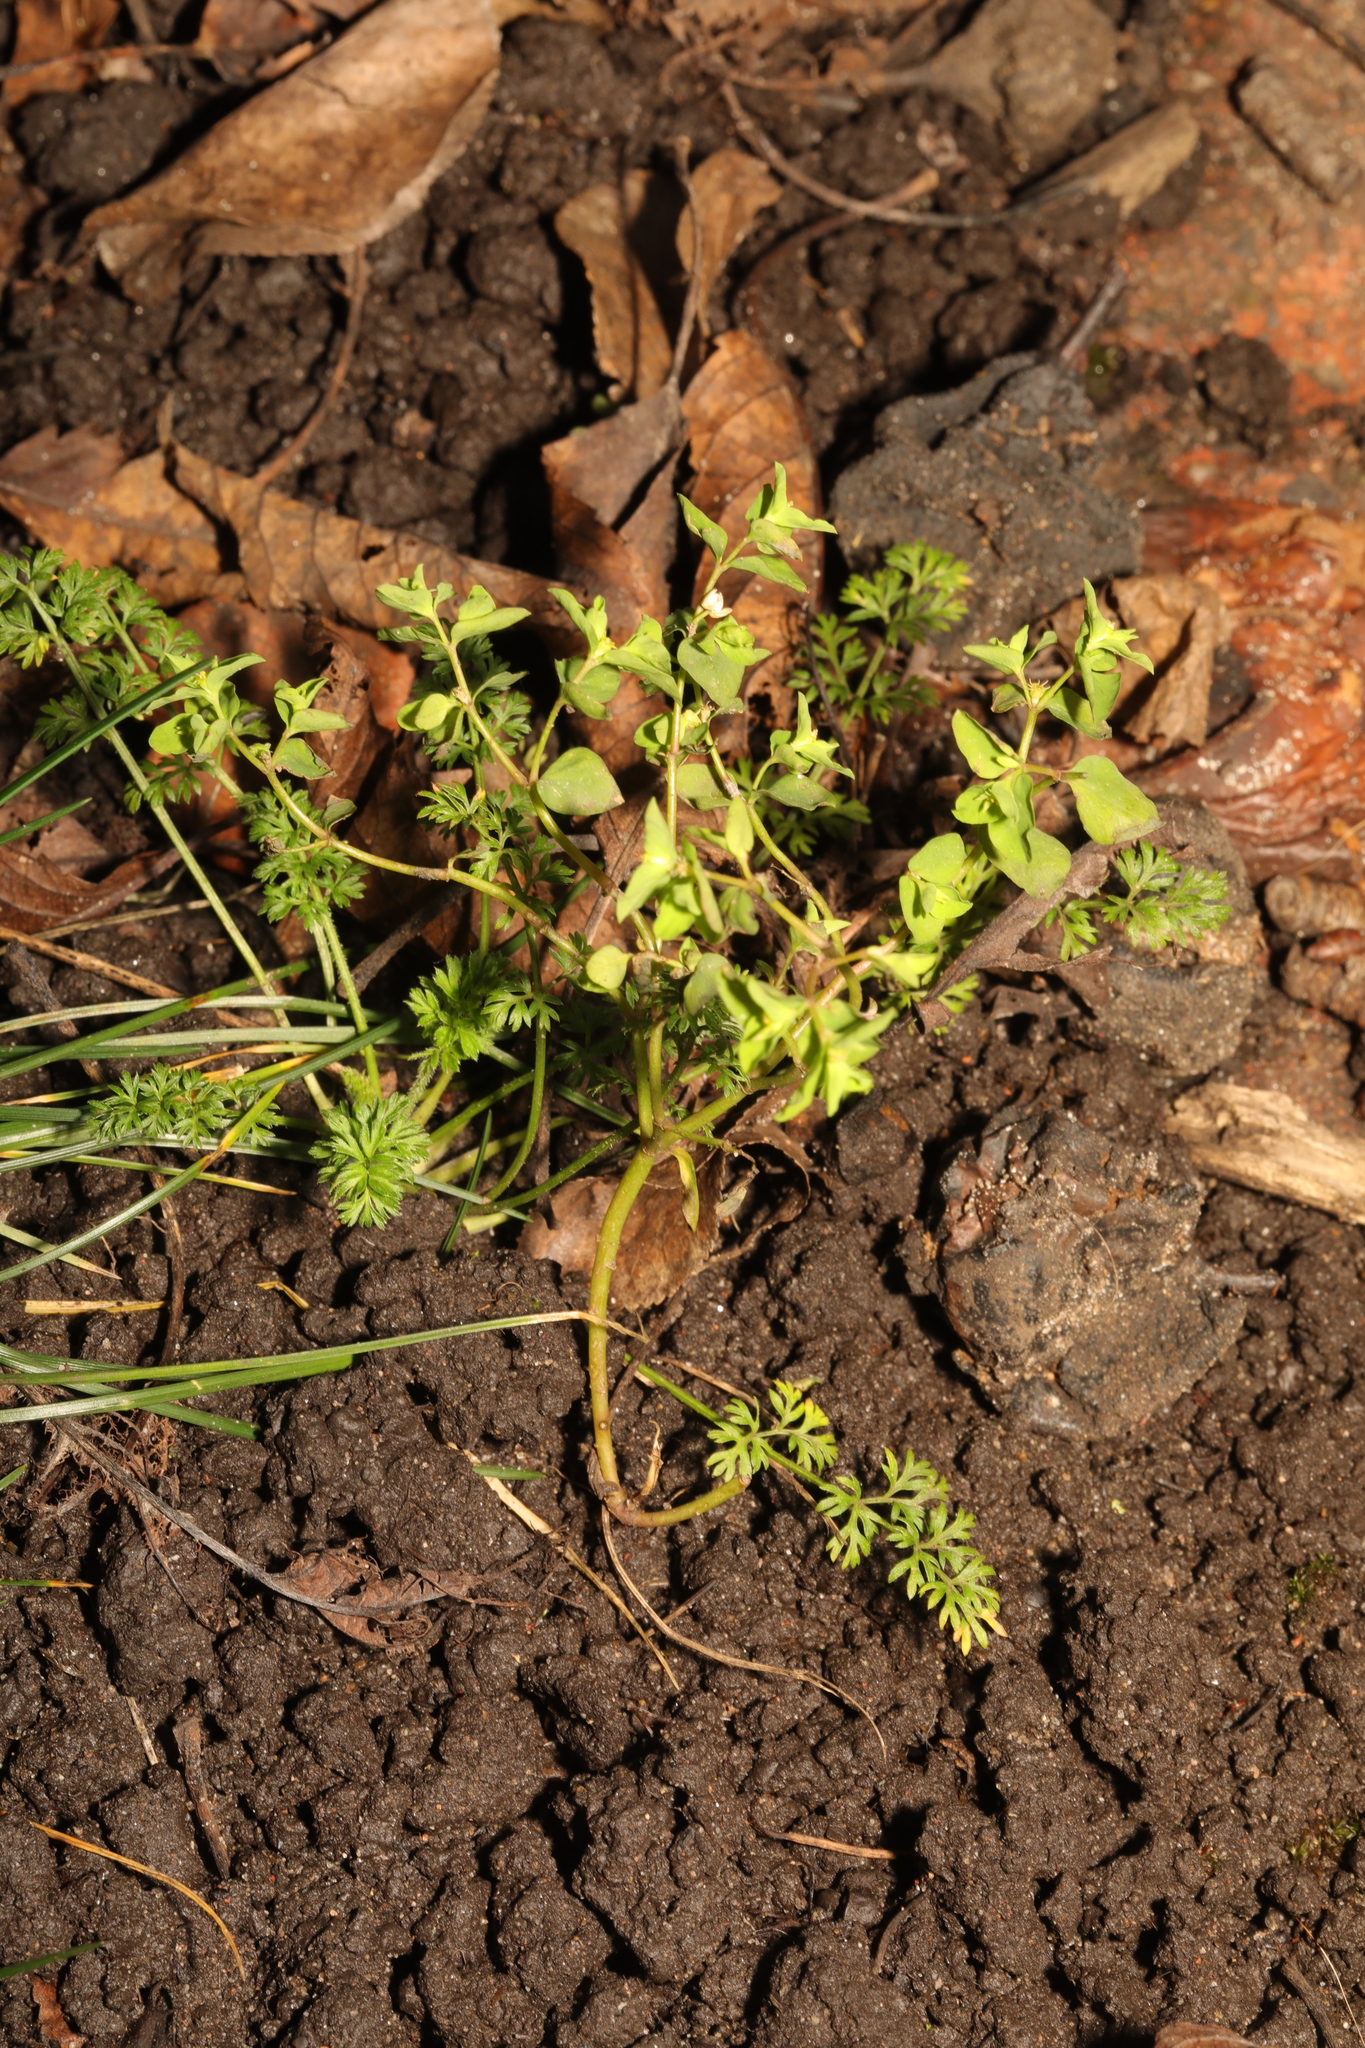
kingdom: Plantae
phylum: Tracheophyta
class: Magnoliopsida
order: Malpighiales
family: Euphorbiaceae
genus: Euphorbia
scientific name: Euphorbia peplus
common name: Petty spurge
